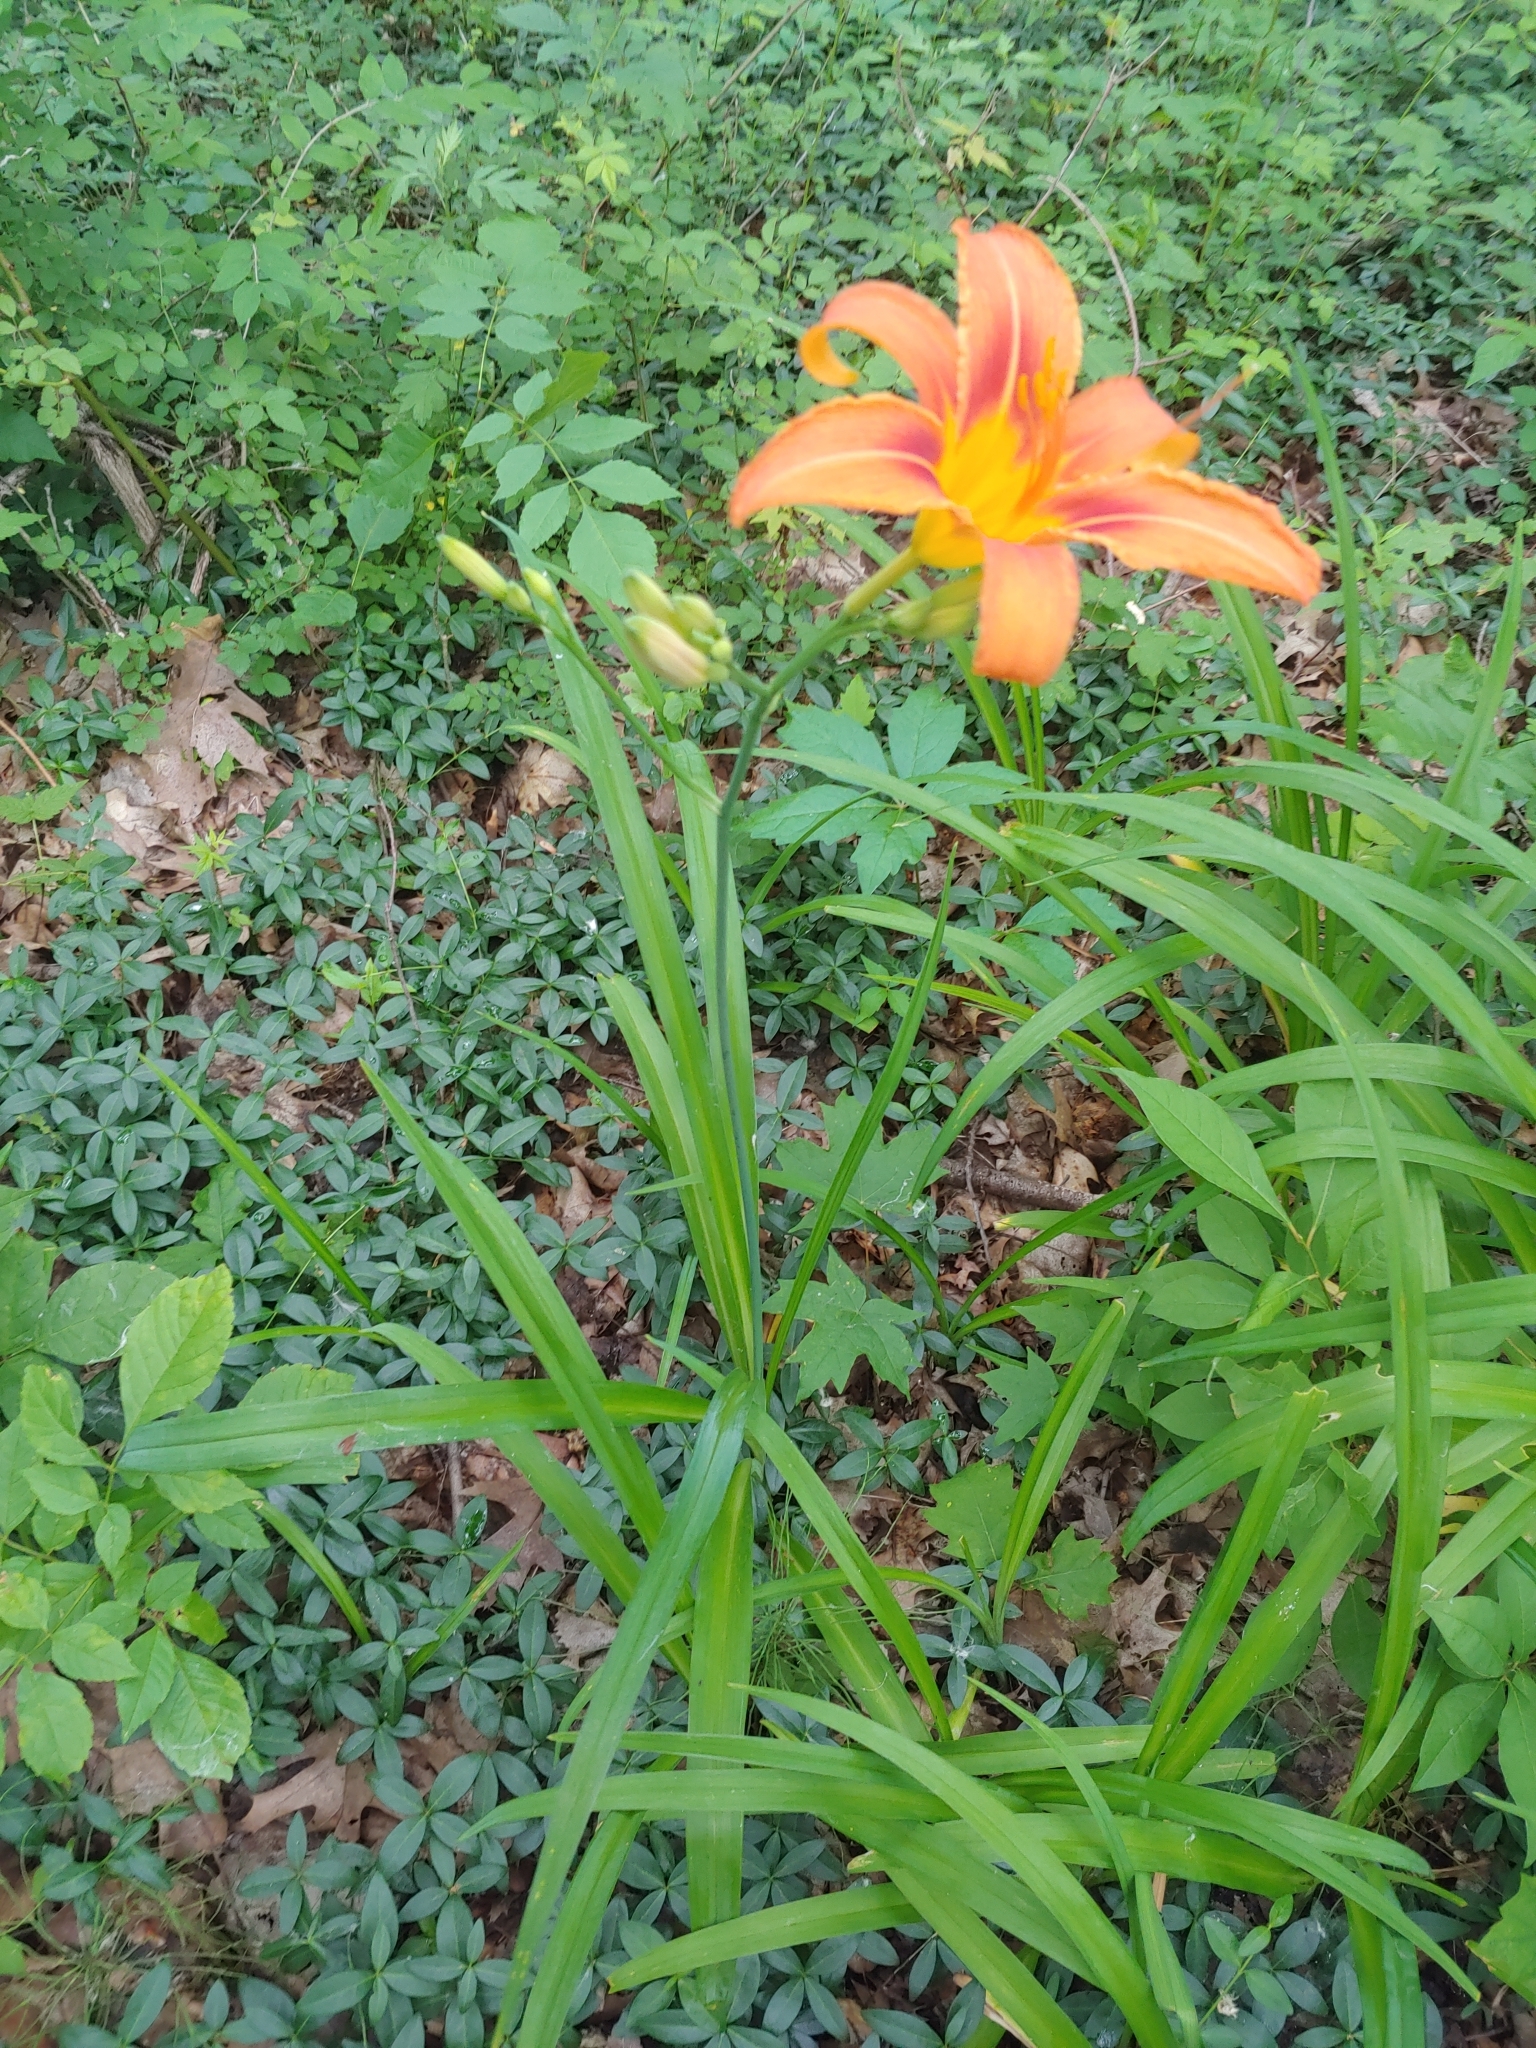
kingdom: Plantae
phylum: Tracheophyta
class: Liliopsida
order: Asparagales
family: Asphodelaceae
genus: Hemerocallis
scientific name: Hemerocallis fulva
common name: Orange day-lily
